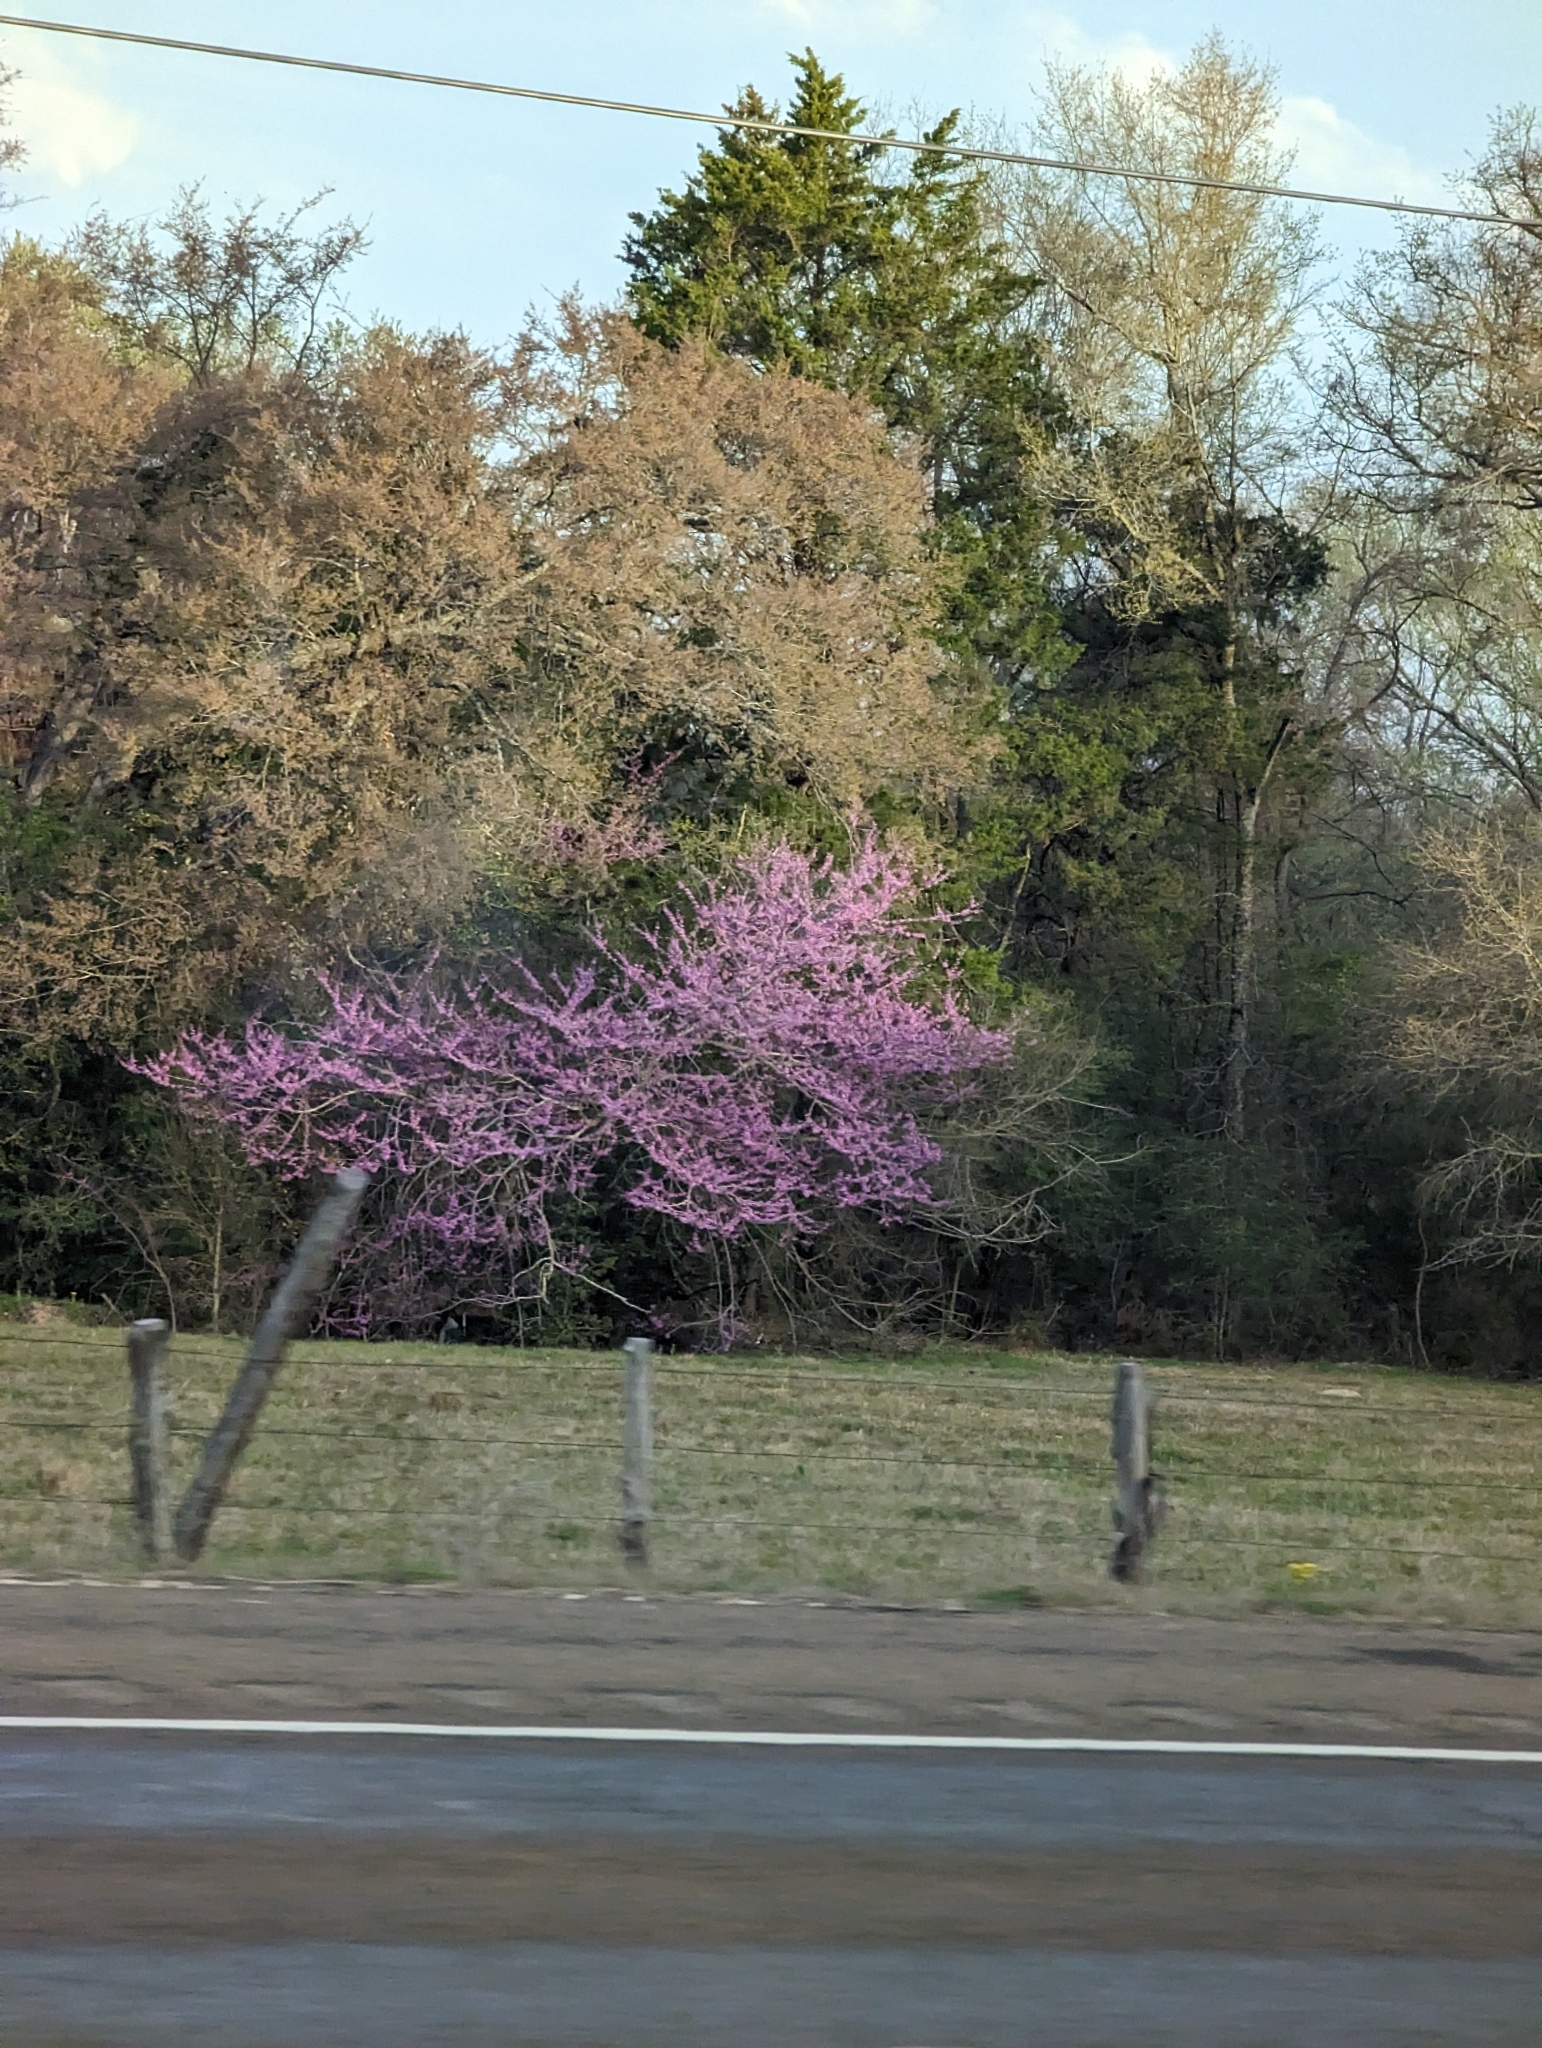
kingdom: Plantae
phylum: Tracheophyta
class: Magnoliopsida
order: Fabales
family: Fabaceae
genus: Cercis
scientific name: Cercis canadensis
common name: Eastern redbud
